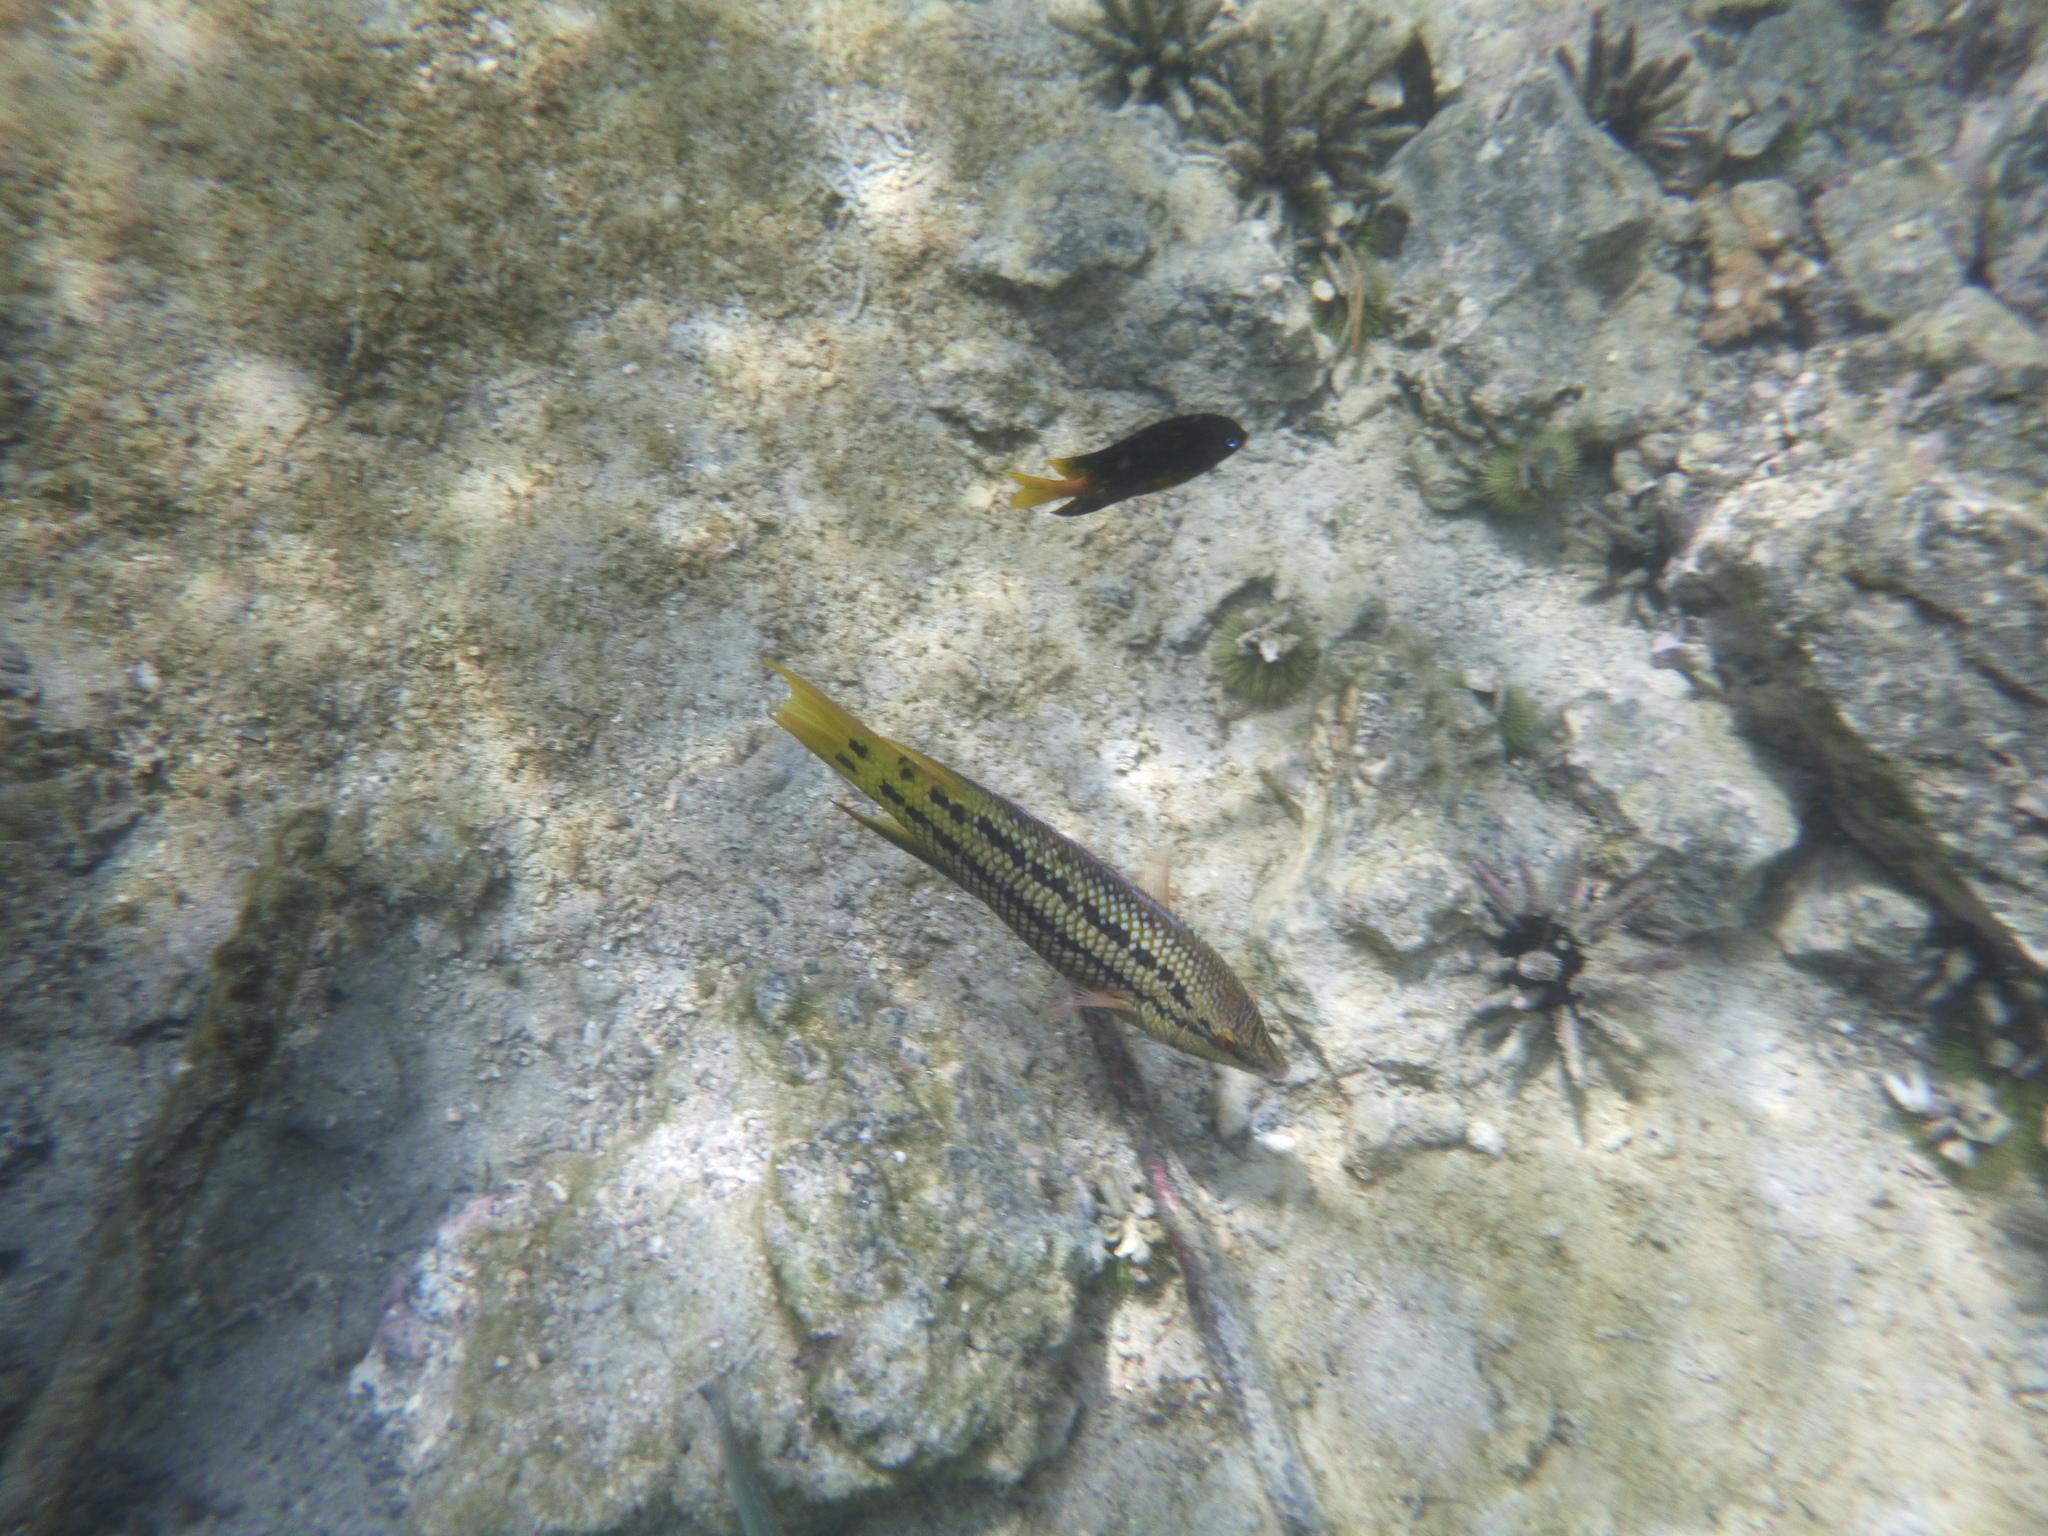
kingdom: Animalia
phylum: Chordata
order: Perciformes
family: Labridae
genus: Bodianus
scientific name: Bodianus diplotaenia
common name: Mexican hogfish
